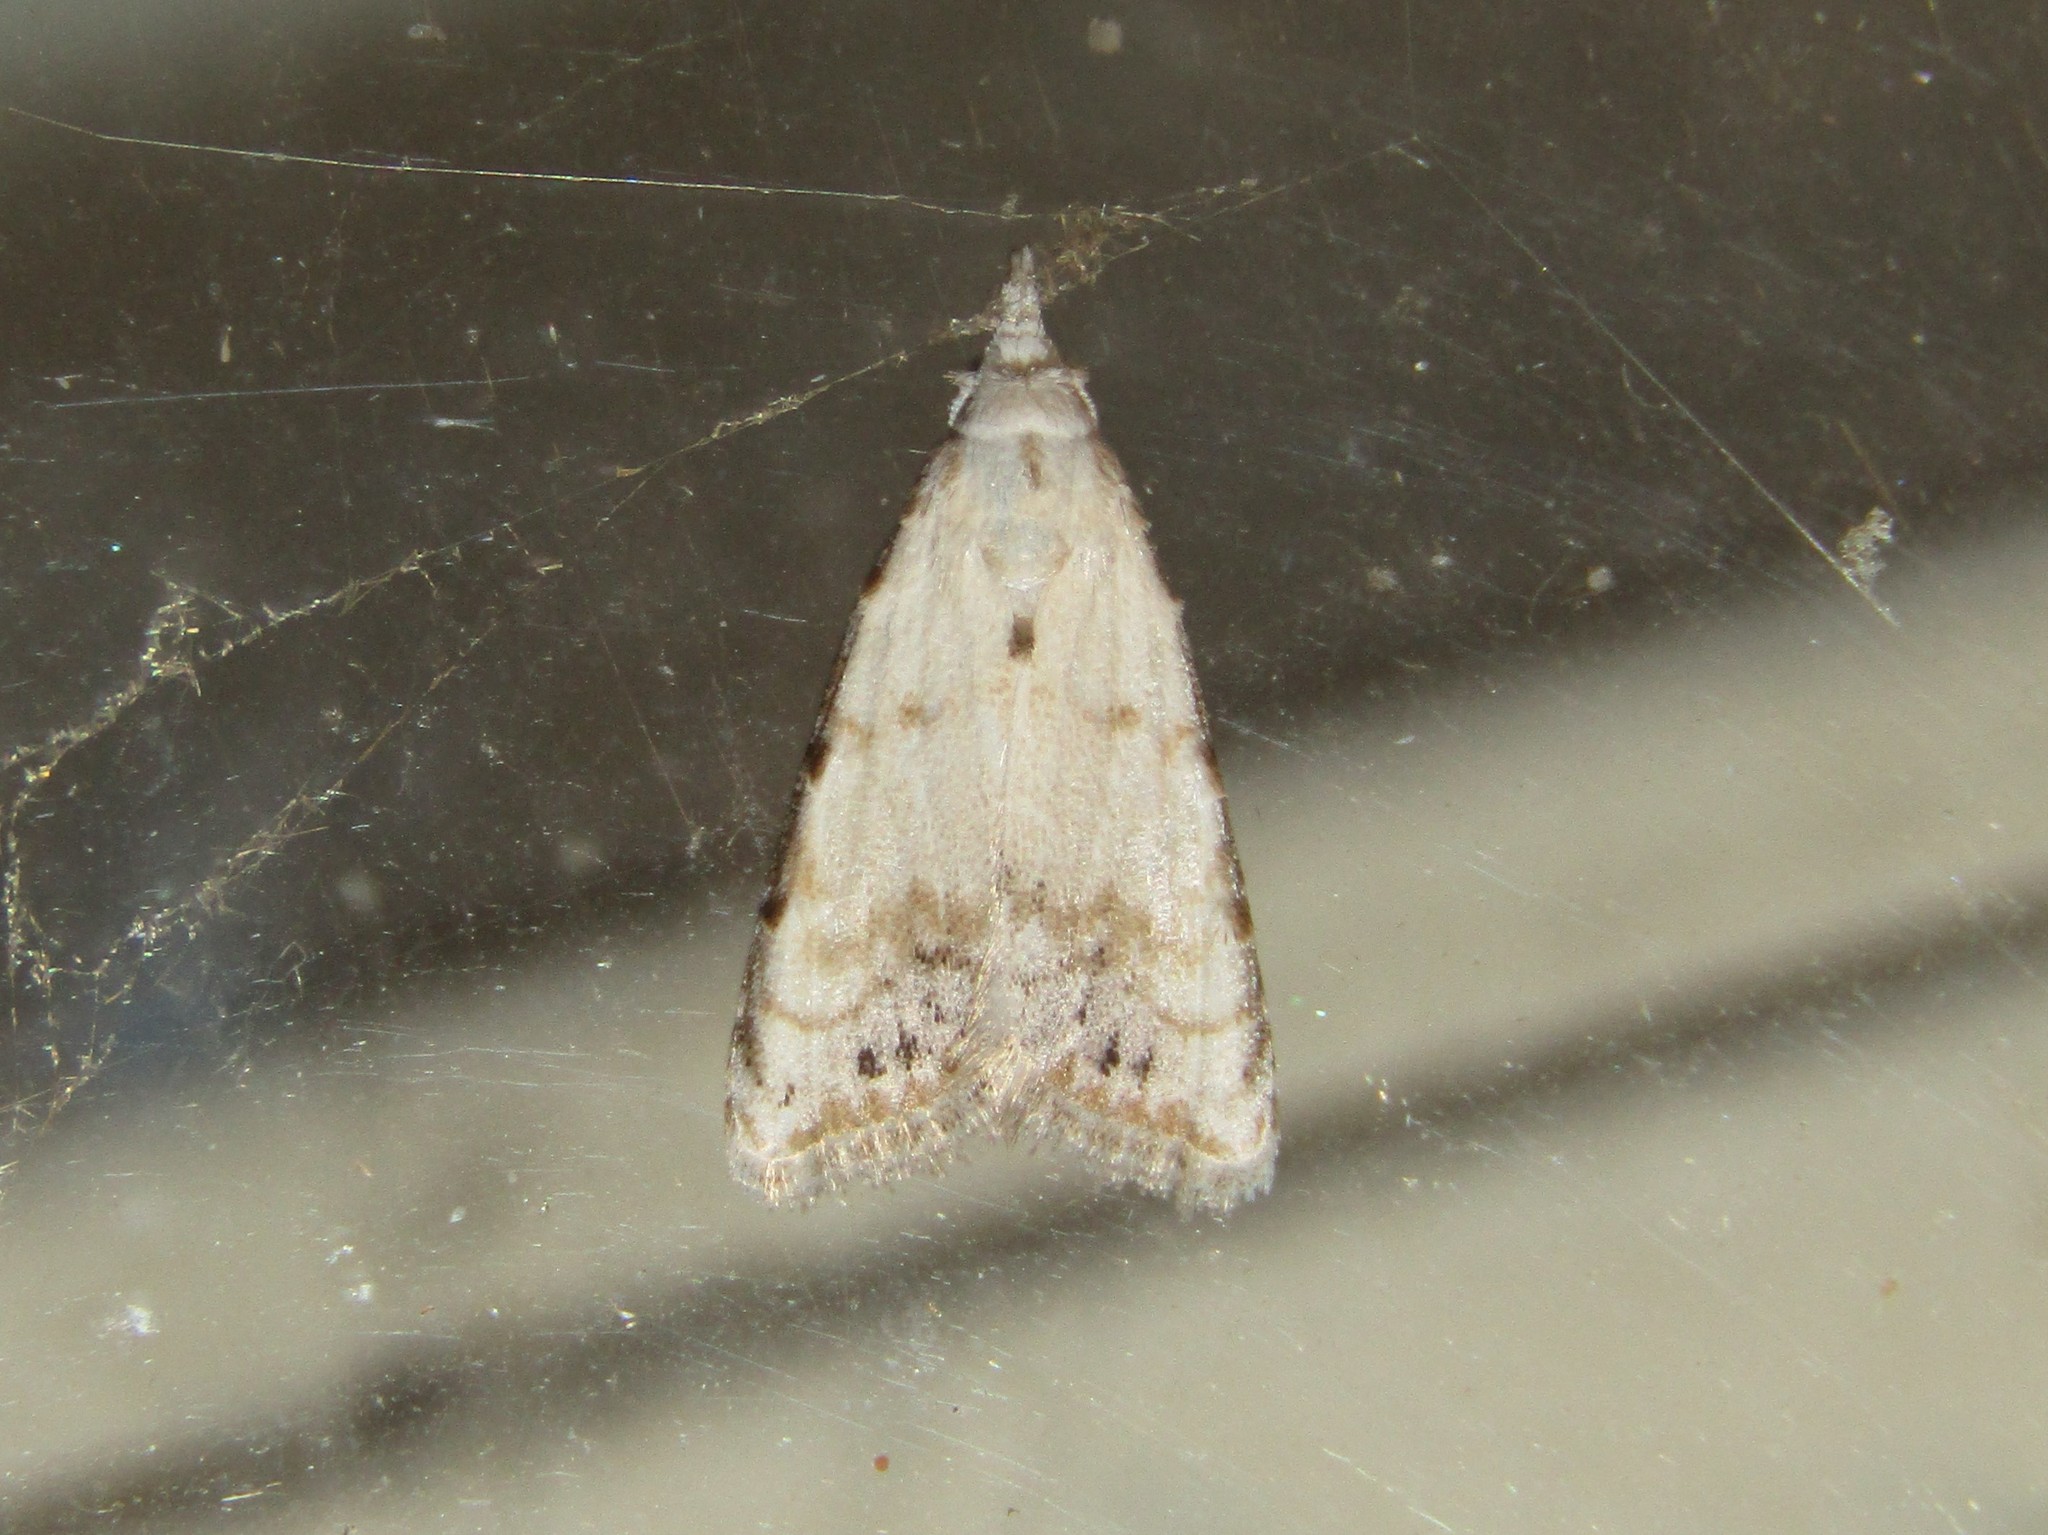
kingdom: Animalia
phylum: Arthropoda
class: Insecta
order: Lepidoptera
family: Nolidae
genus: Nola
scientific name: Nola cereella
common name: Sorghum webworm moth
